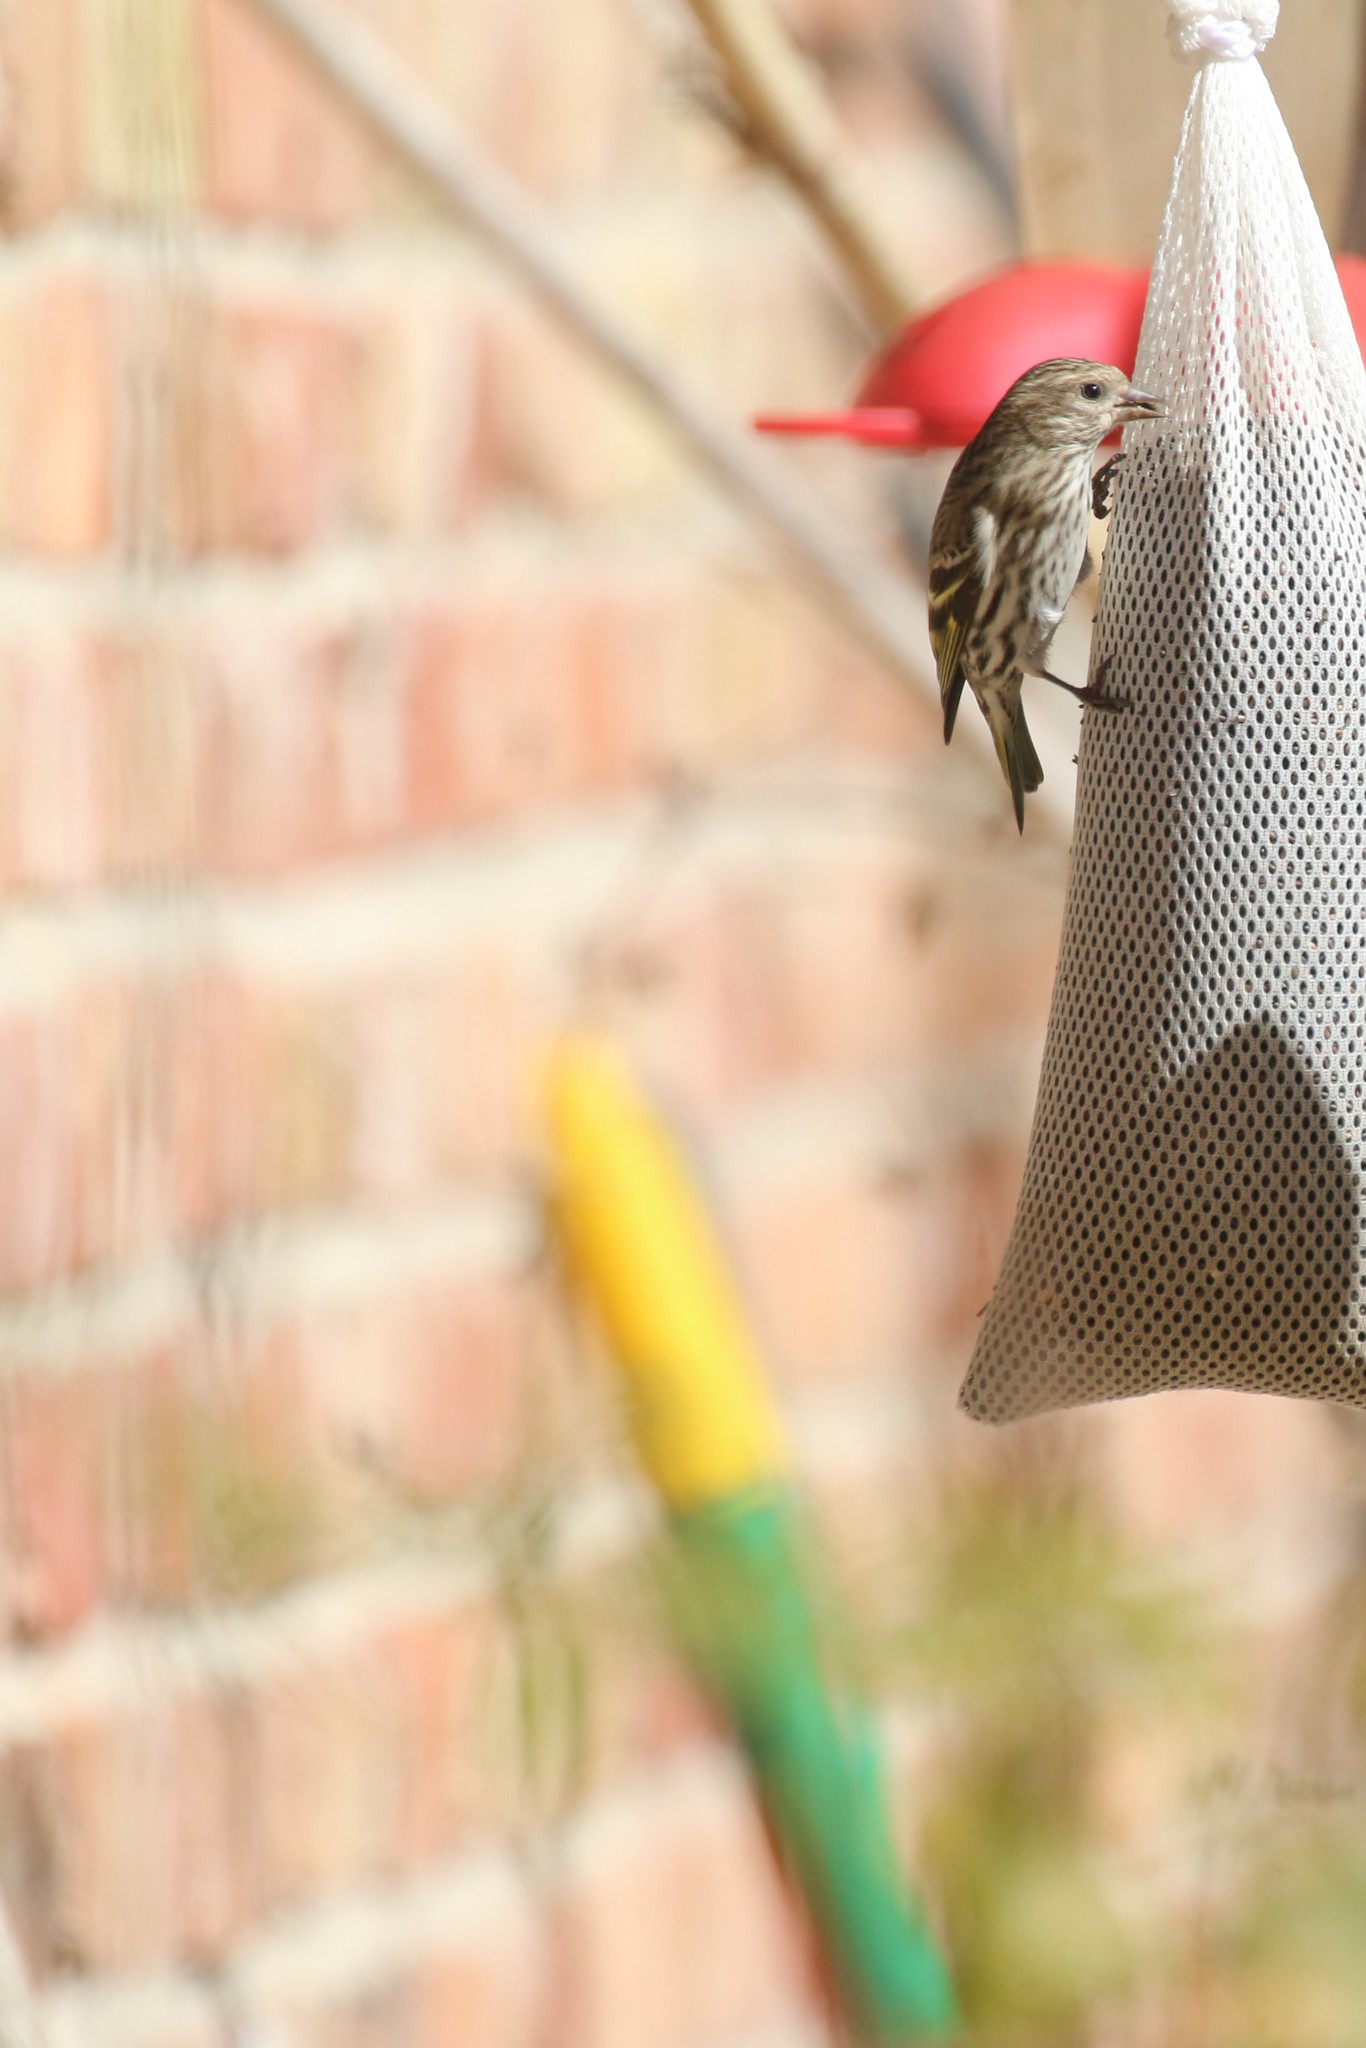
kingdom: Animalia
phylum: Chordata
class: Aves
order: Passeriformes
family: Fringillidae
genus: Spinus
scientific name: Spinus pinus
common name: Pine siskin
